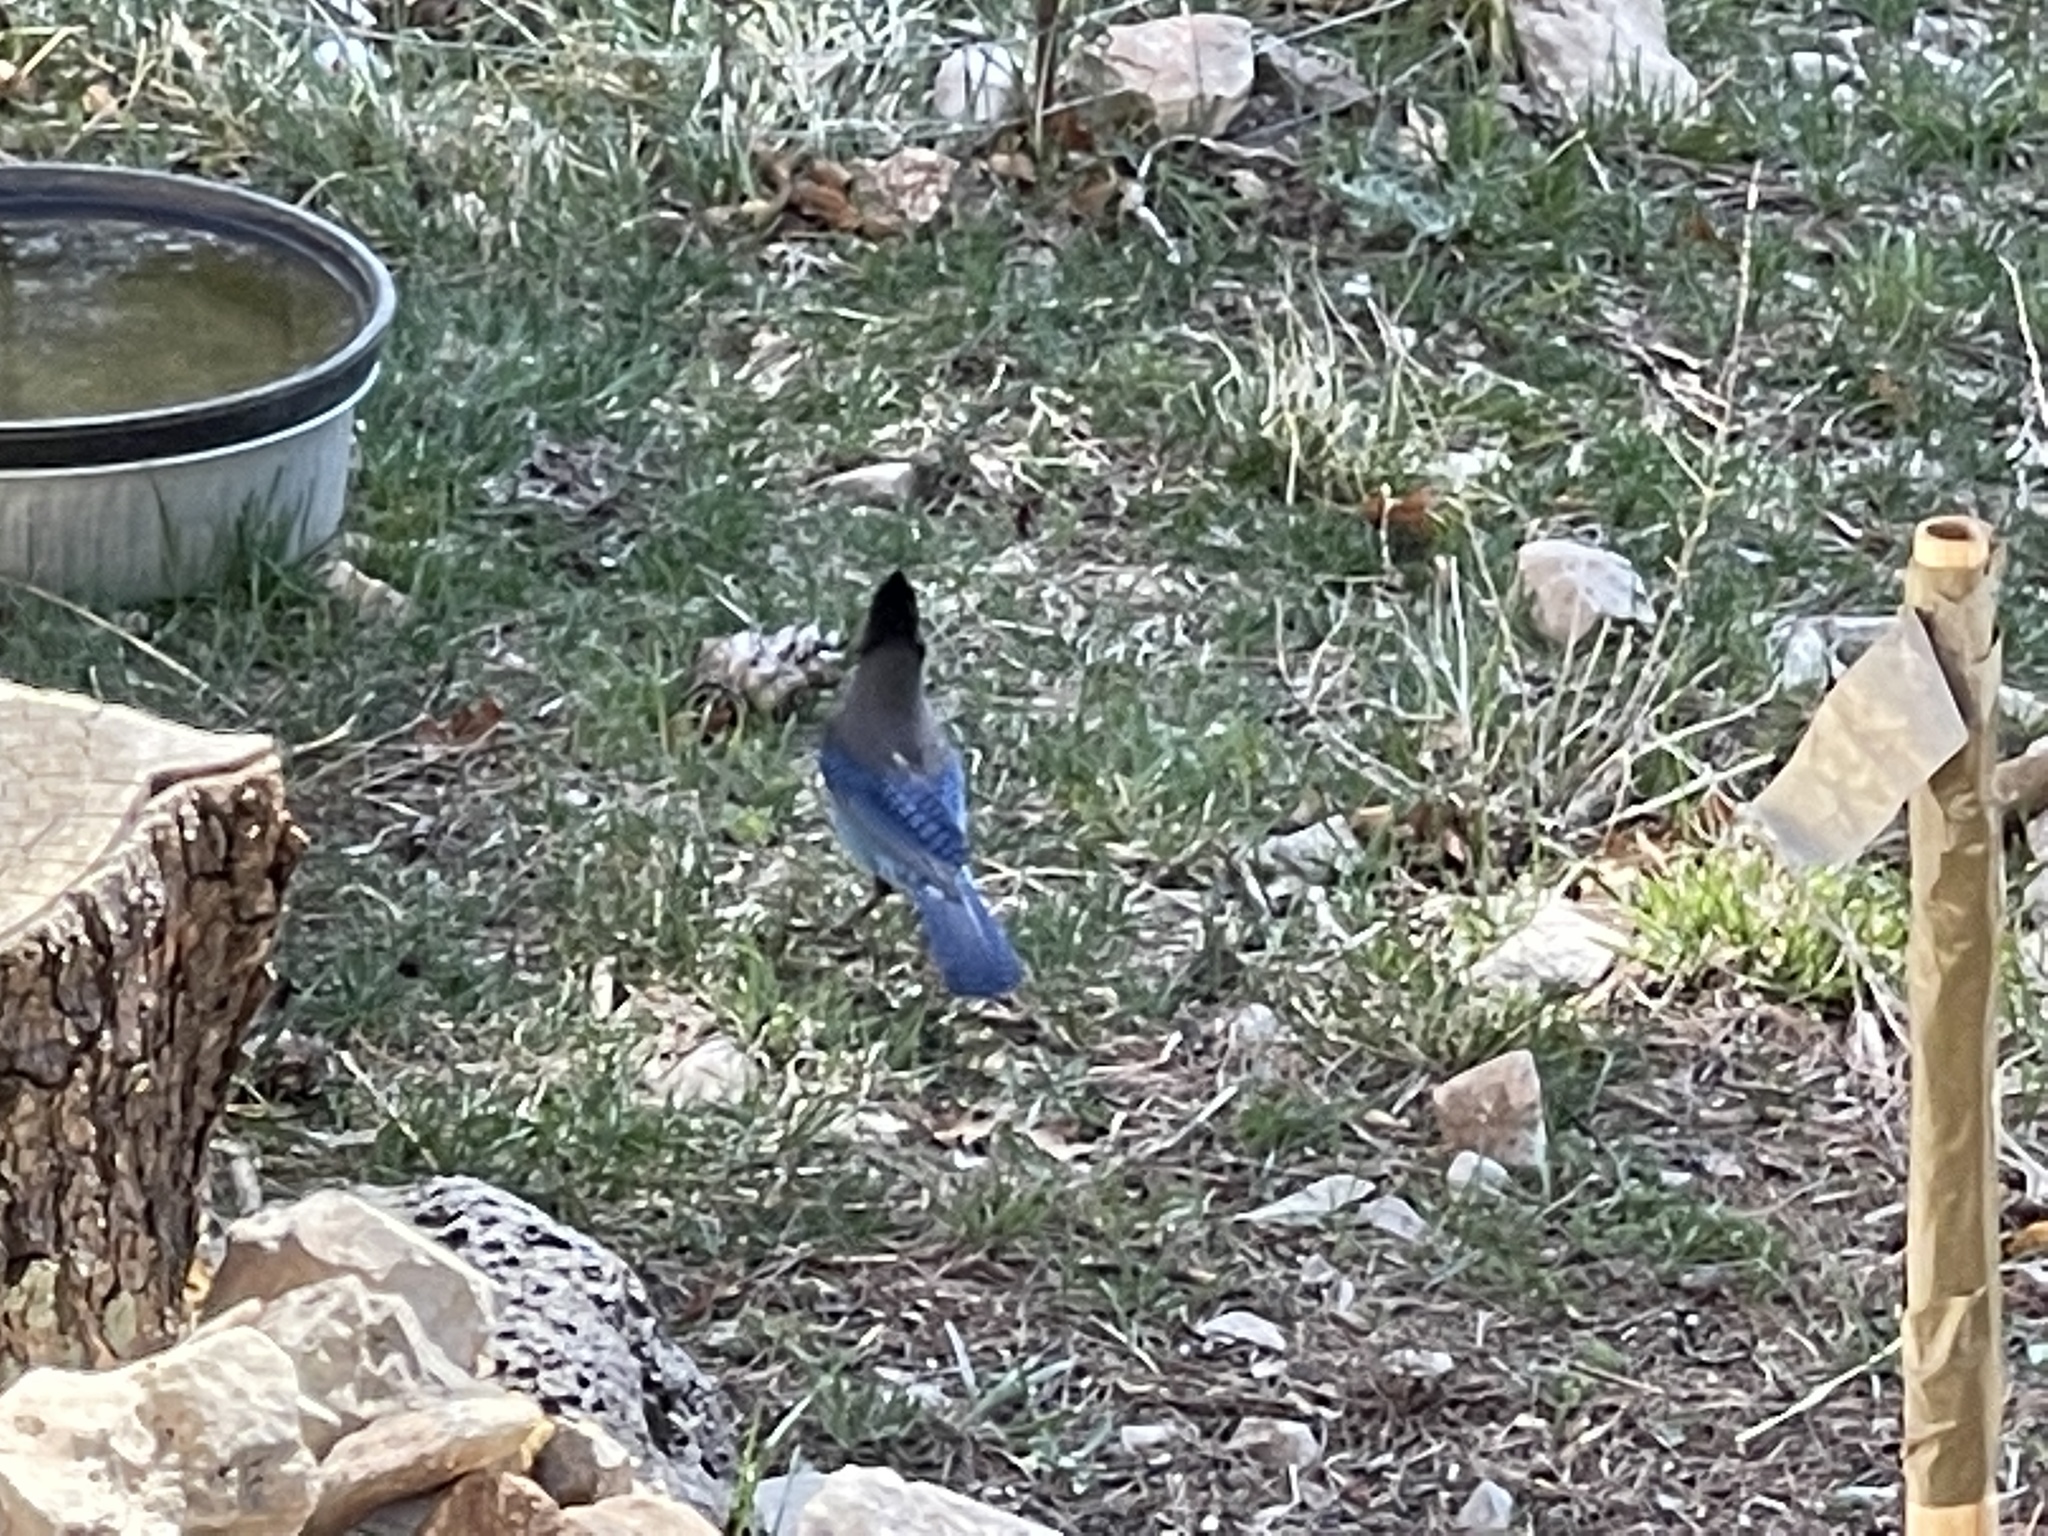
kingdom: Animalia
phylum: Chordata
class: Aves
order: Passeriformes
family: Corvidae
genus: Cyanocitta
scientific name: Cyanocitta stelleri
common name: Steller's jay
